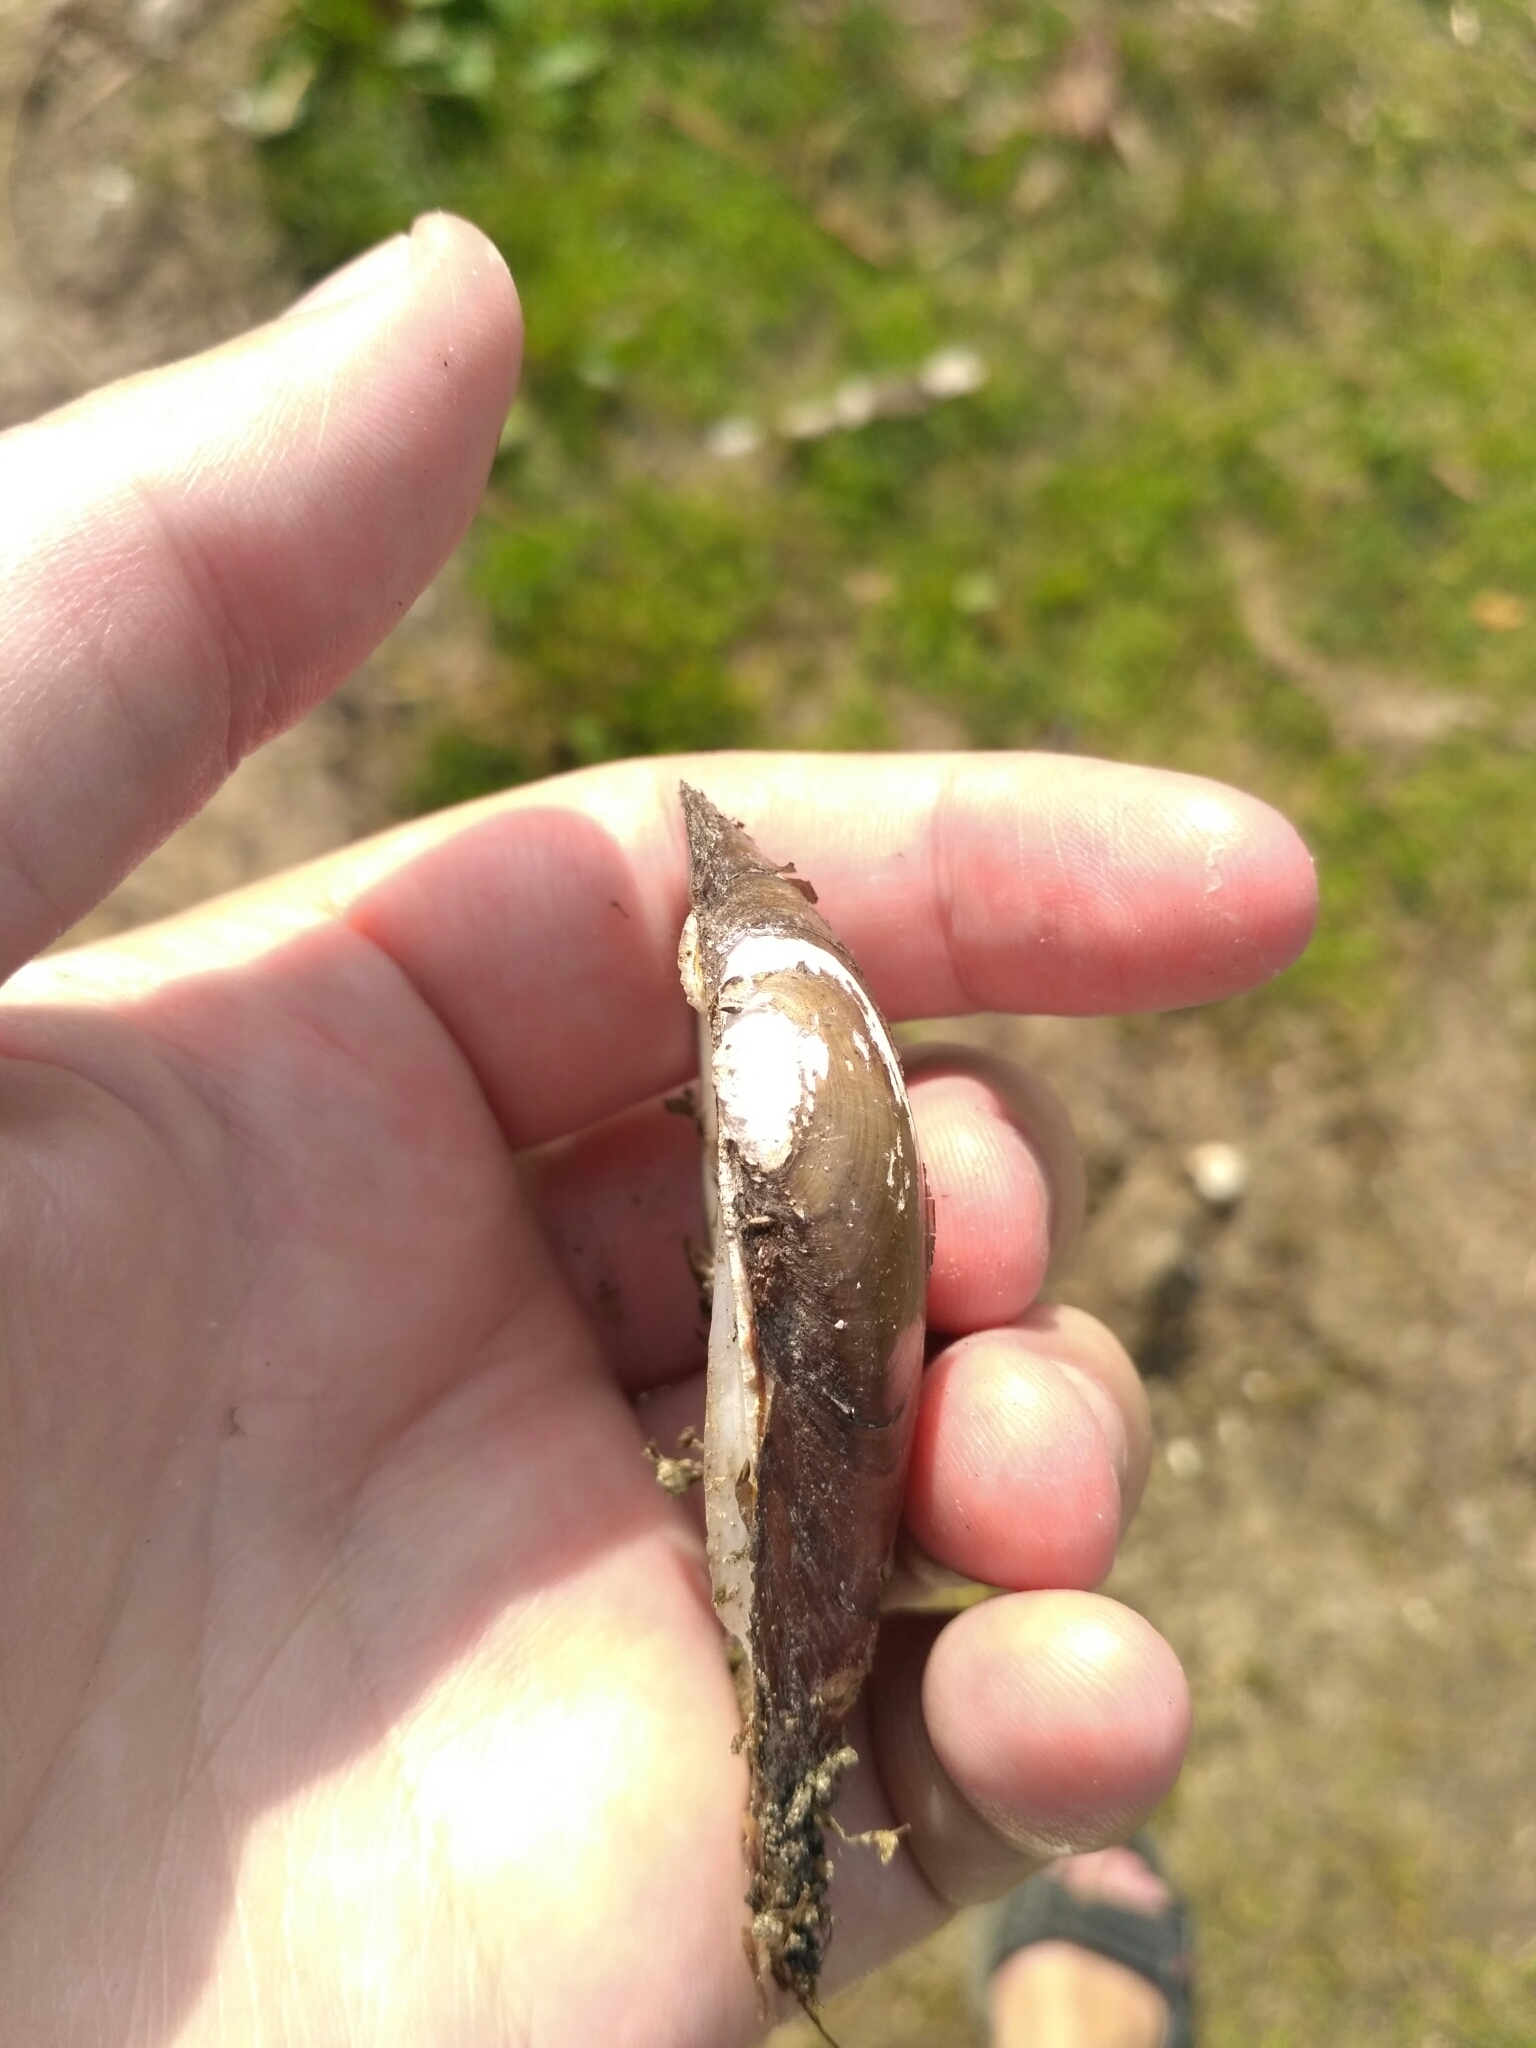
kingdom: Animalia
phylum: Mollusca
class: Bivalvia
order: Unionida
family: Unionidae
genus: Unio
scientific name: Unio tumidus
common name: Swollen river mussel
